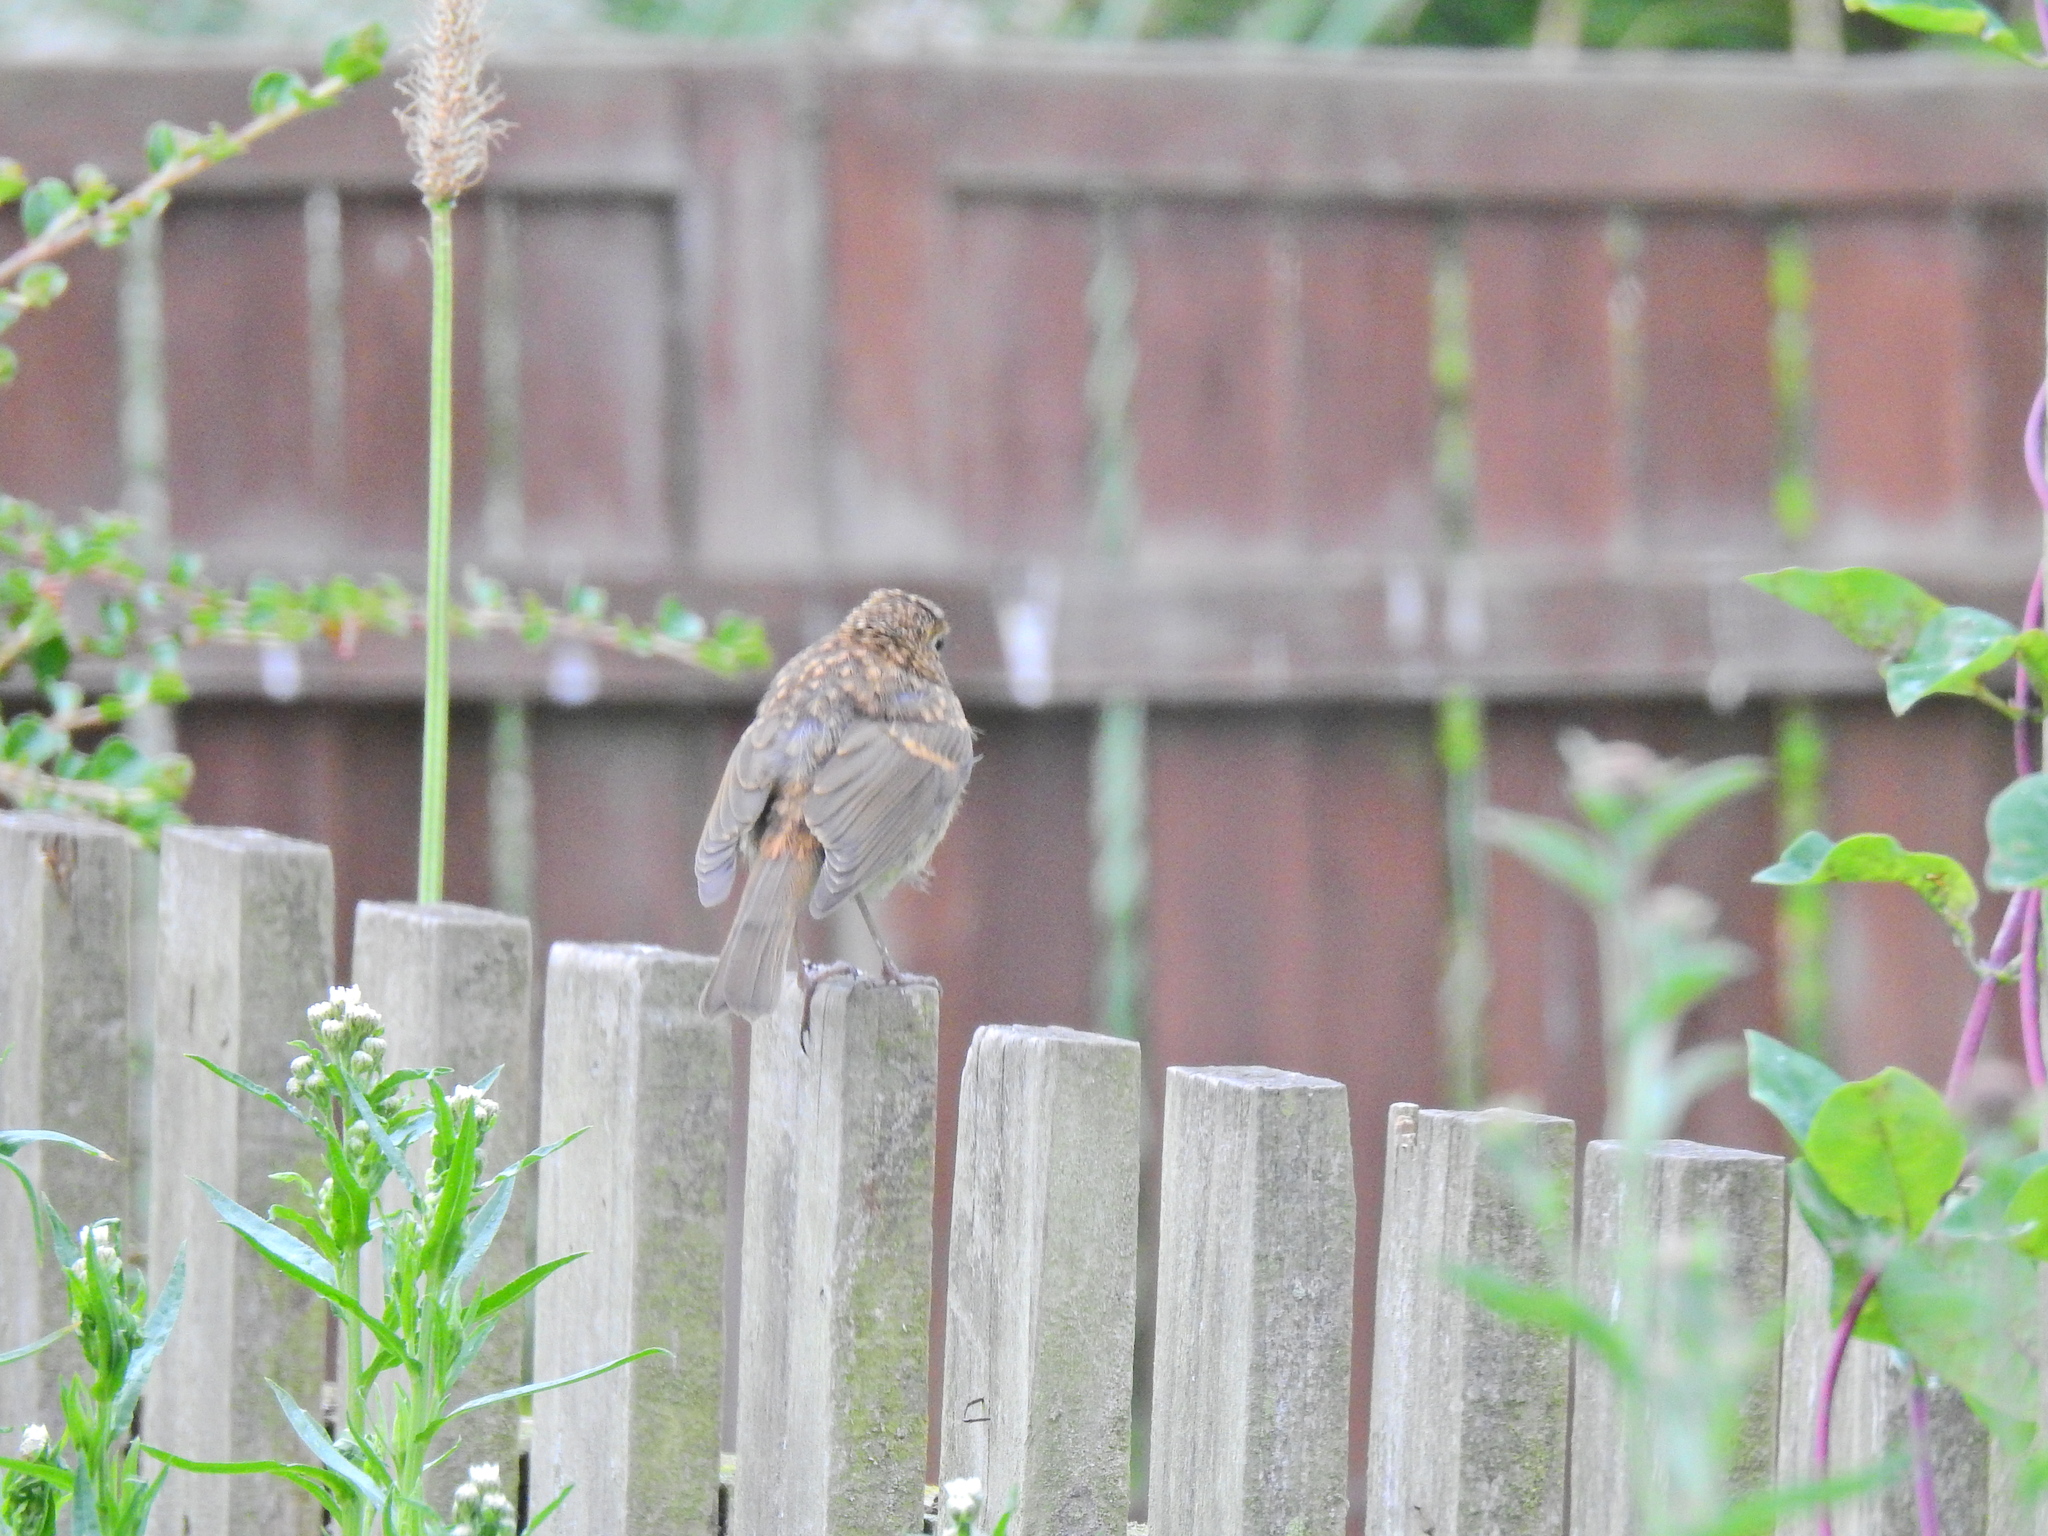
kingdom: Animalia
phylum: Chordata
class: Aves
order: Passeriformes
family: Muscicapidae
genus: Erithacus
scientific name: Erithacus rubecula
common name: European robin
